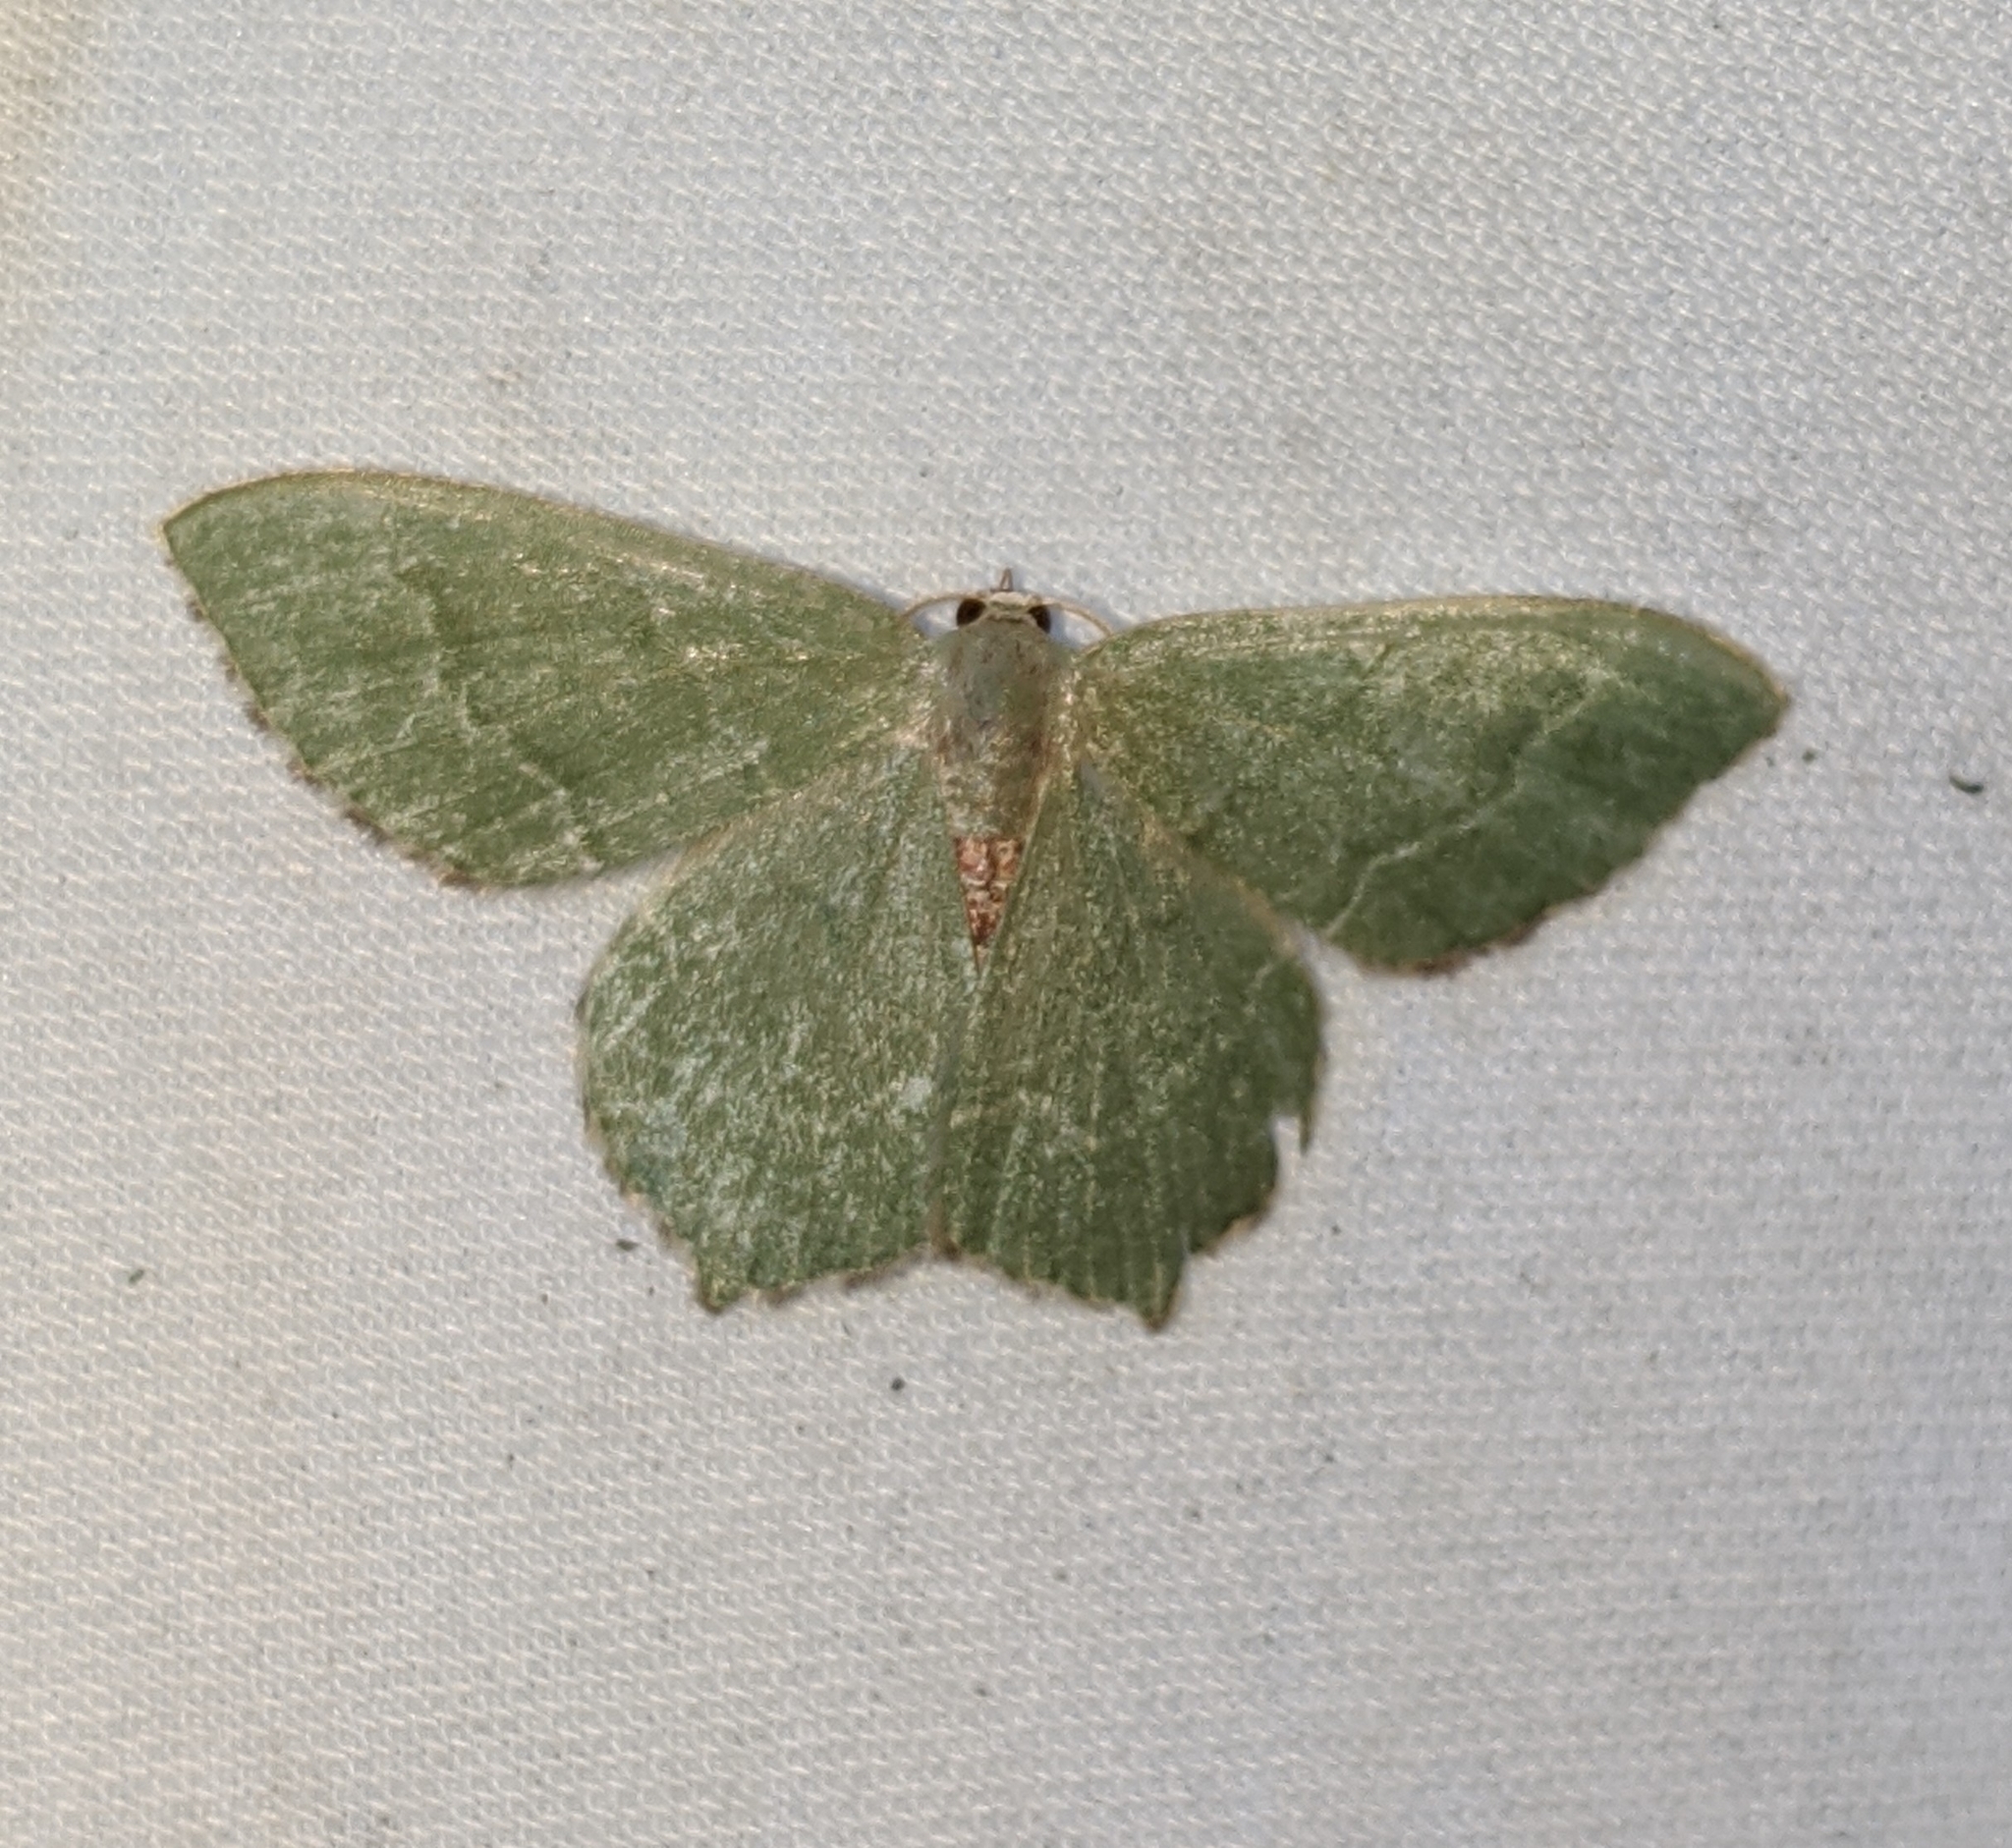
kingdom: Animalia
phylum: Arthropoda
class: Insecta
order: Lepidoptera
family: Geometridae
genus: Hemithea
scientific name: Hemithea aestivaria
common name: Common emerald
